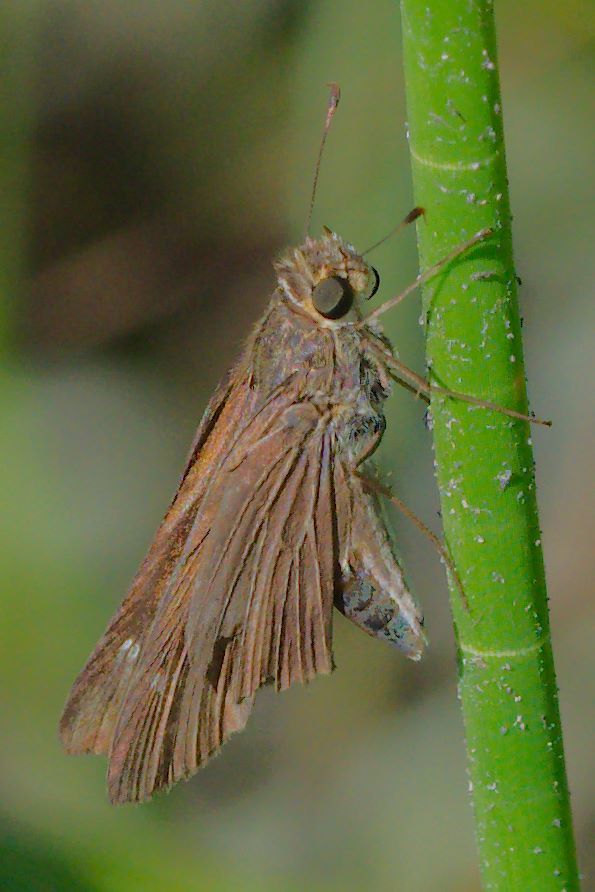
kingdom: Animalia
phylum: Arthropoda
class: Insecta
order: Lepidoptera
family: Hesperiidae
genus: Panoquina
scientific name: Panoquina ocola
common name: Ocola skipper
